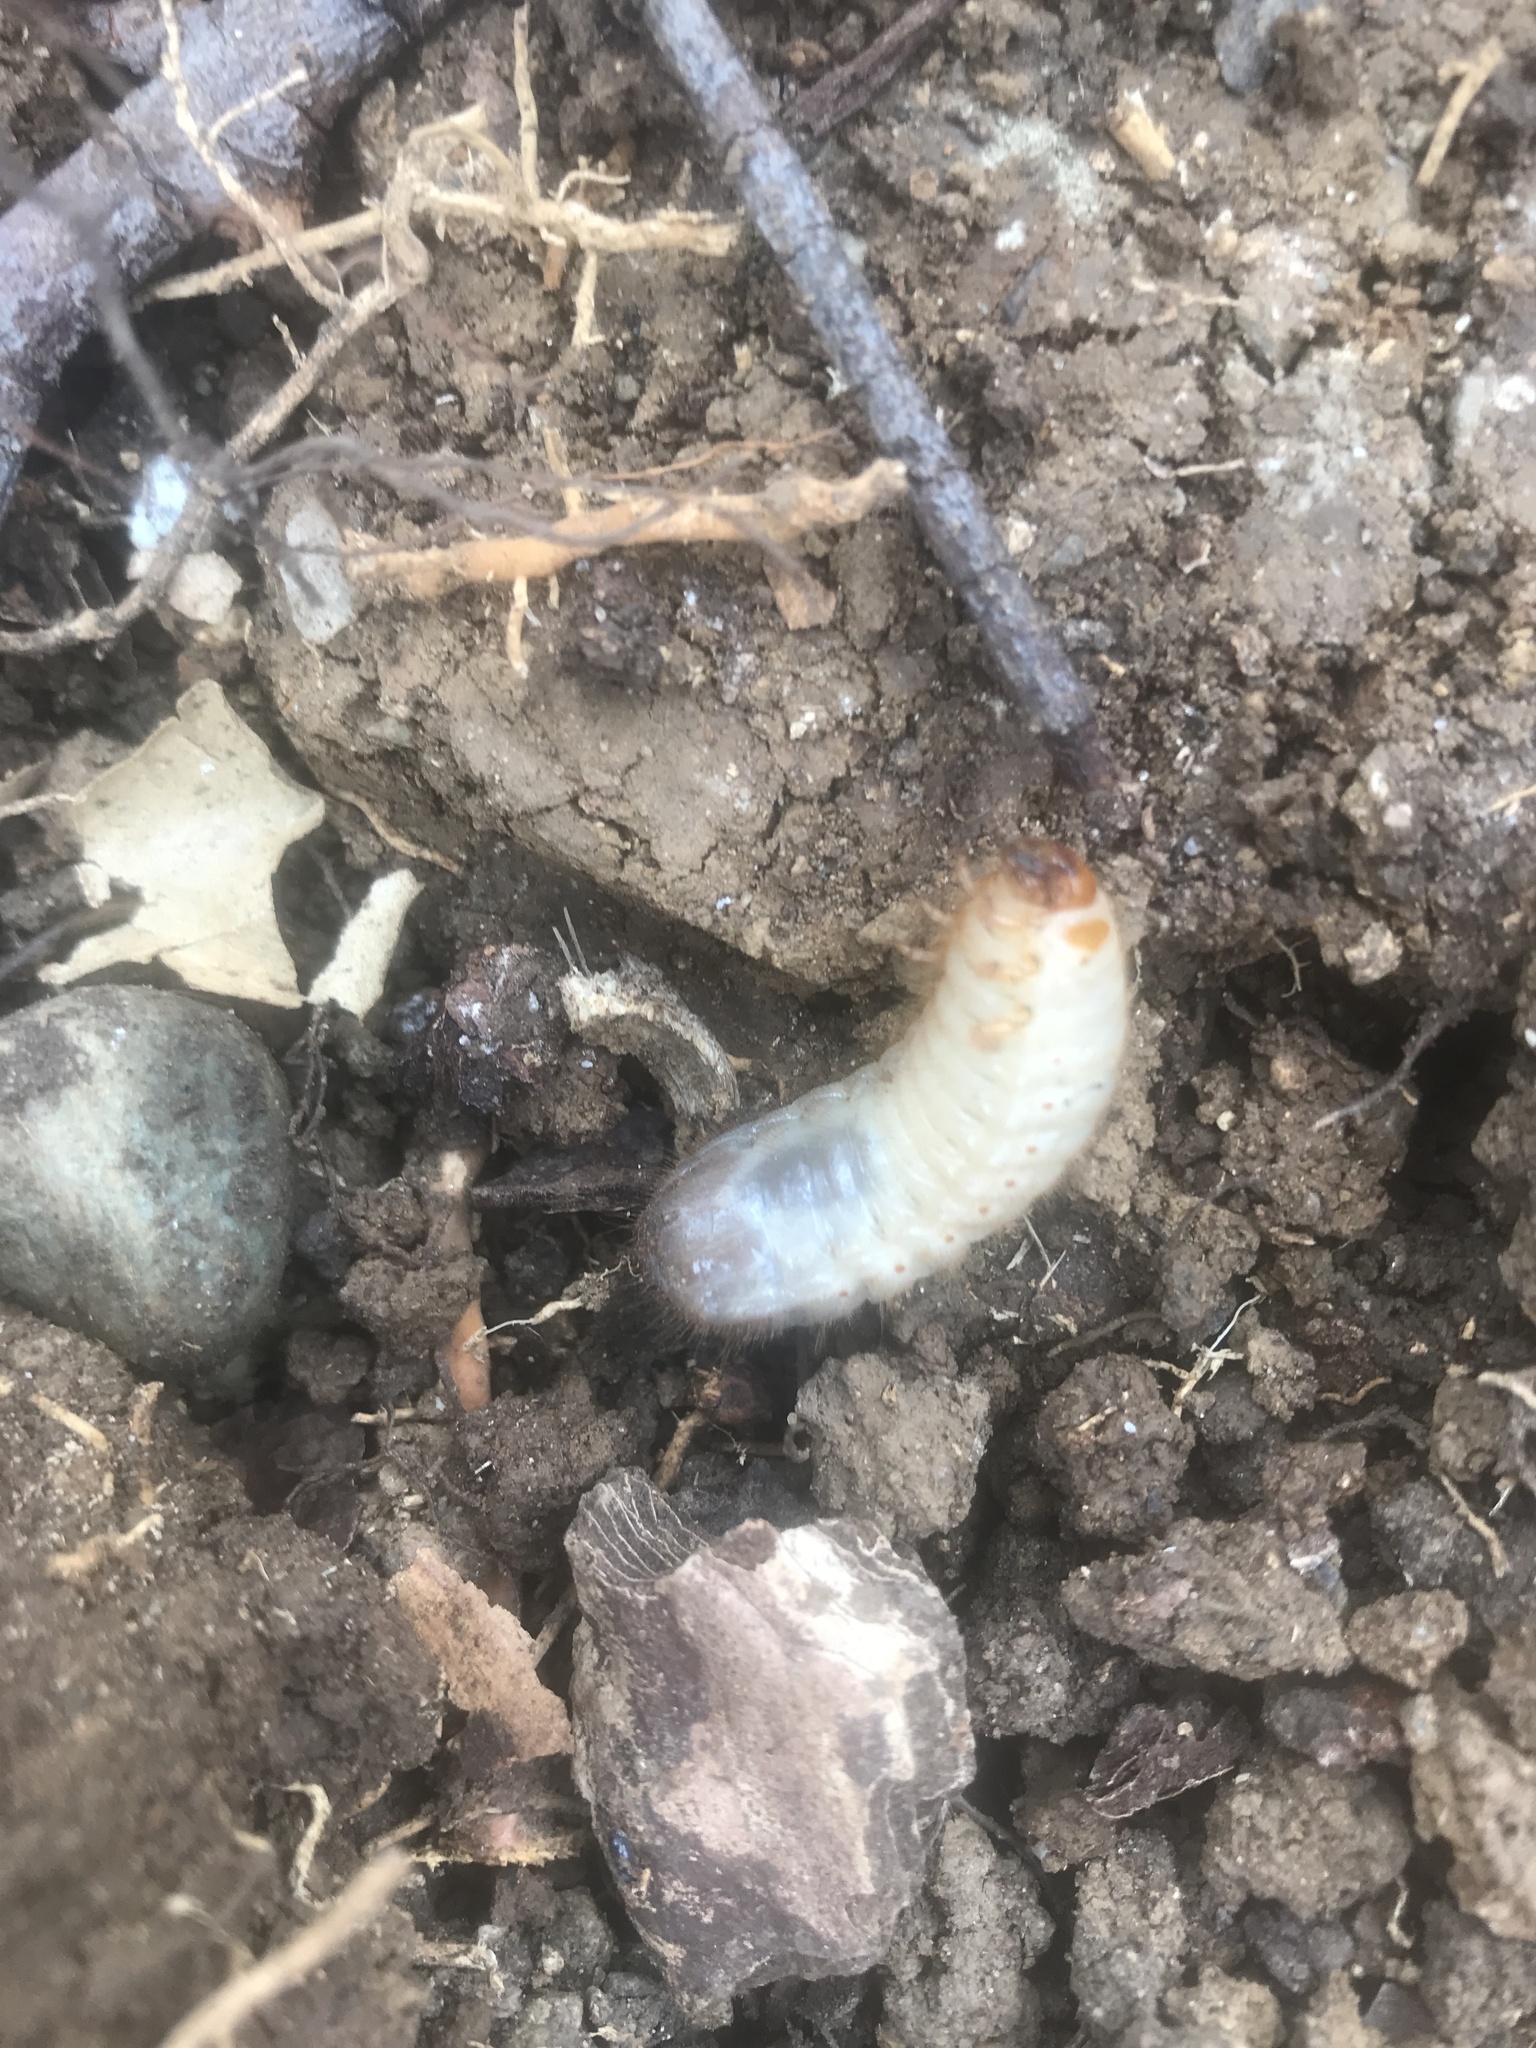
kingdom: Animalia
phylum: Arthropoda
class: Insecta
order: Coleoptera
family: Scarabaeidae
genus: Cetonia
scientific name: Cetonia aurata
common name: Rose chafer
